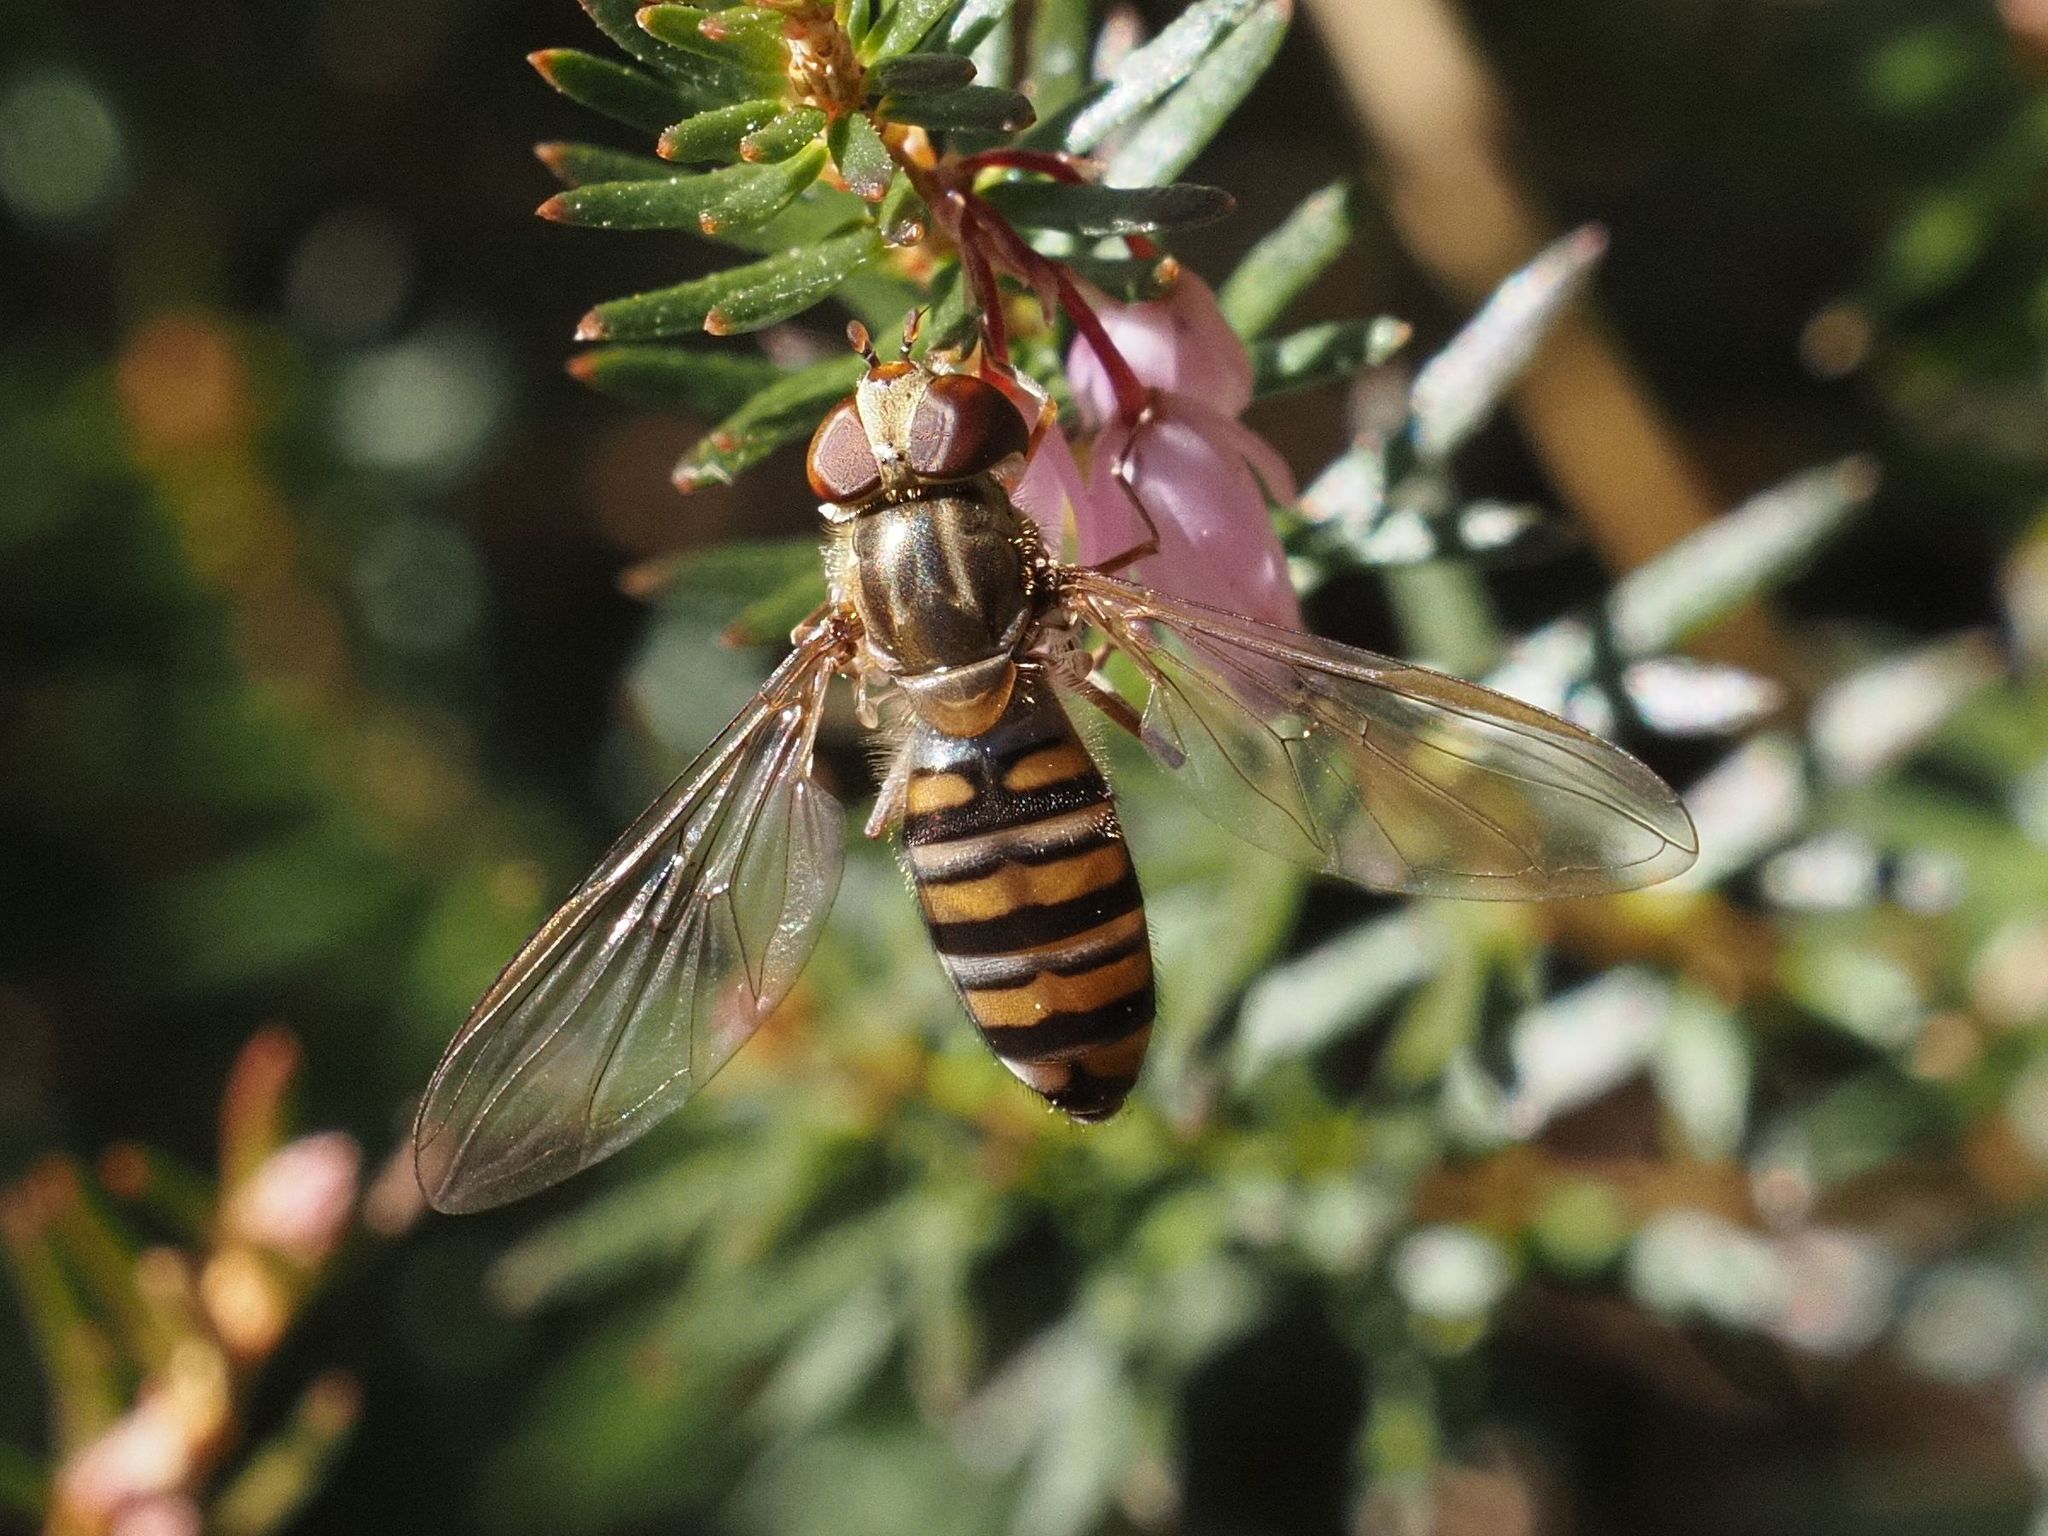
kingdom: Animalia
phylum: Arthropoda
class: Insecta
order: Diptera
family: Syrphidae
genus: Episyrphus
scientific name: Episyrphus balteatus
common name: Marmalade hoverfly
